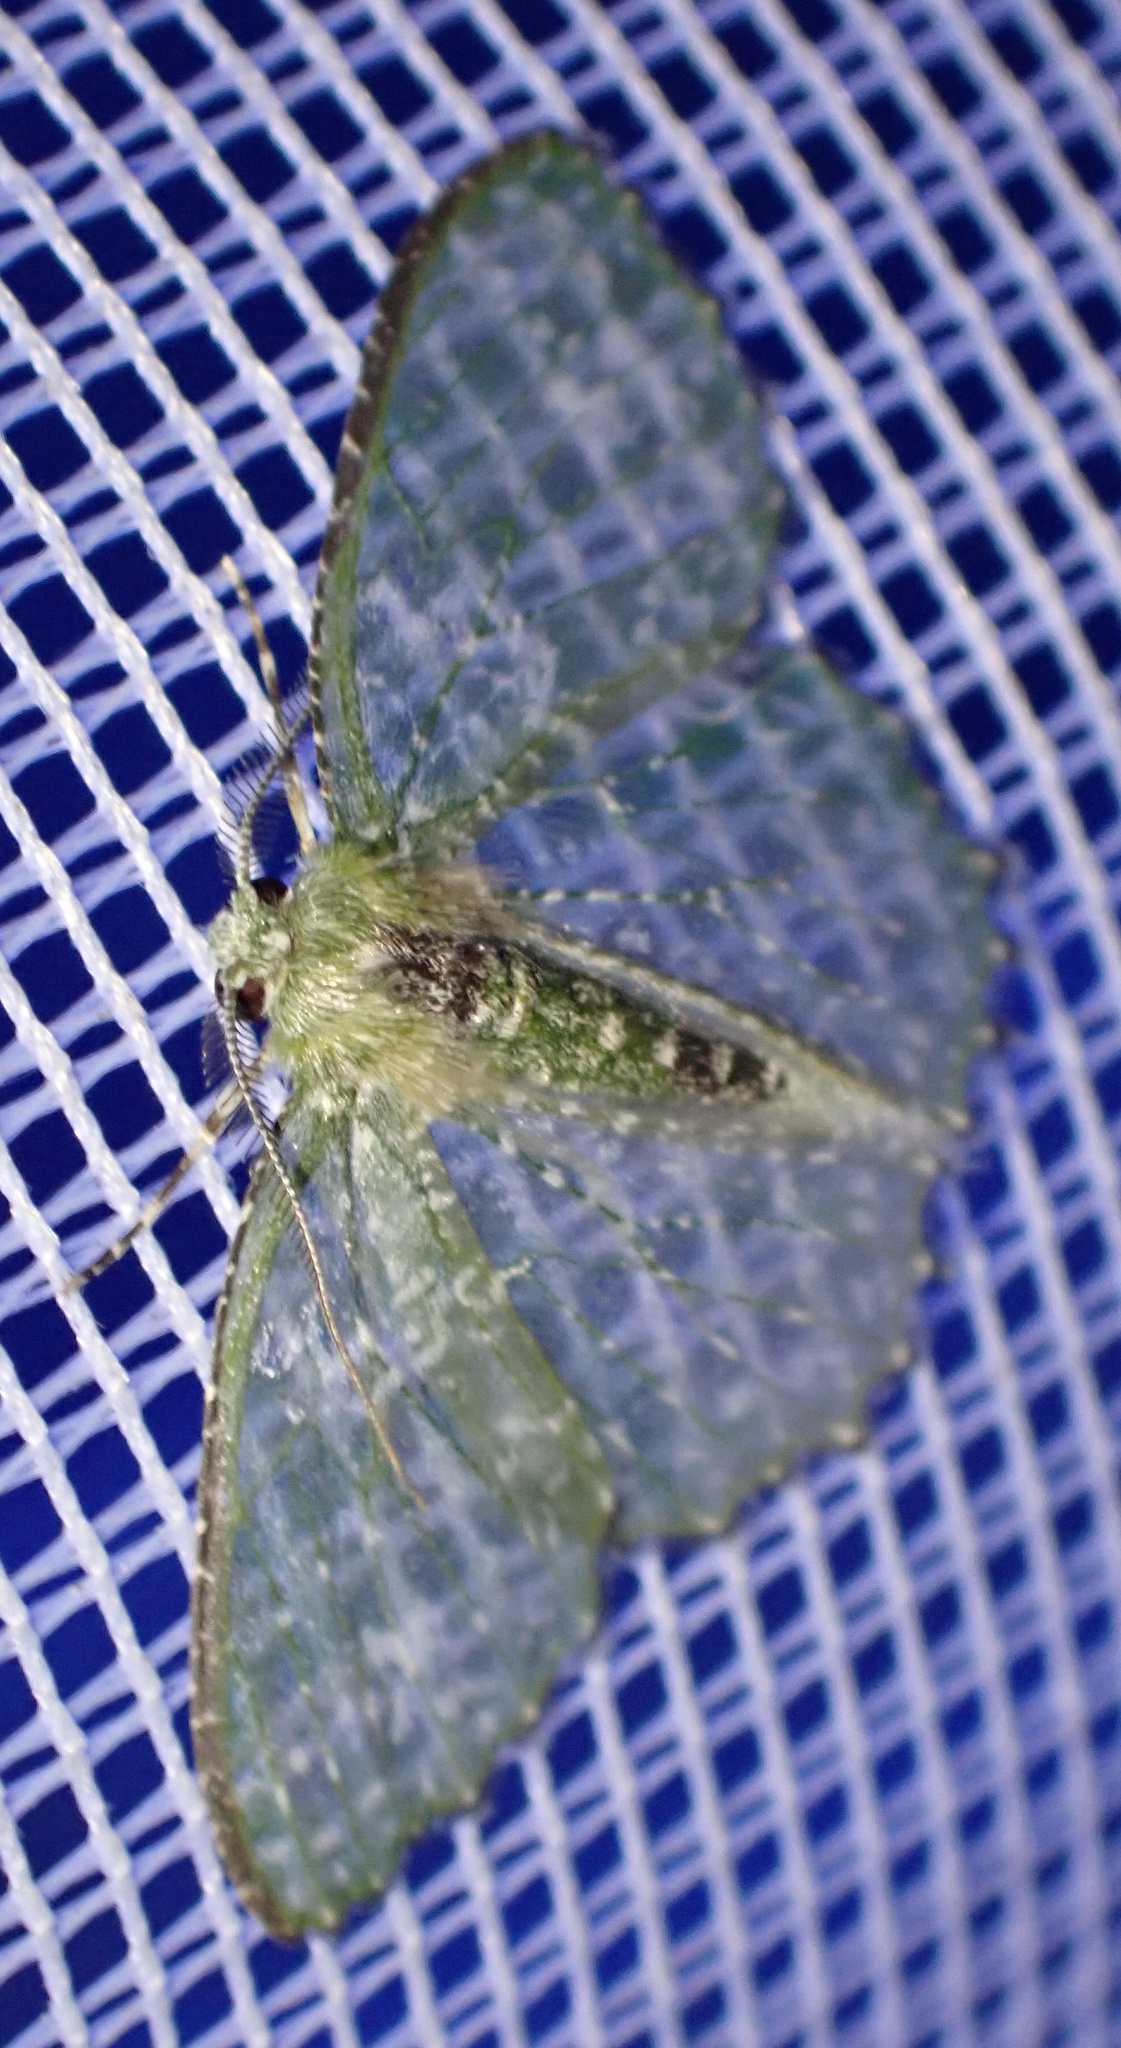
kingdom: Animalia
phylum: Arthropoda
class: Insecta
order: Lepidoptera
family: Geometridae
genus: Eucyclodes
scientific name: Eucyclodes iridescens
